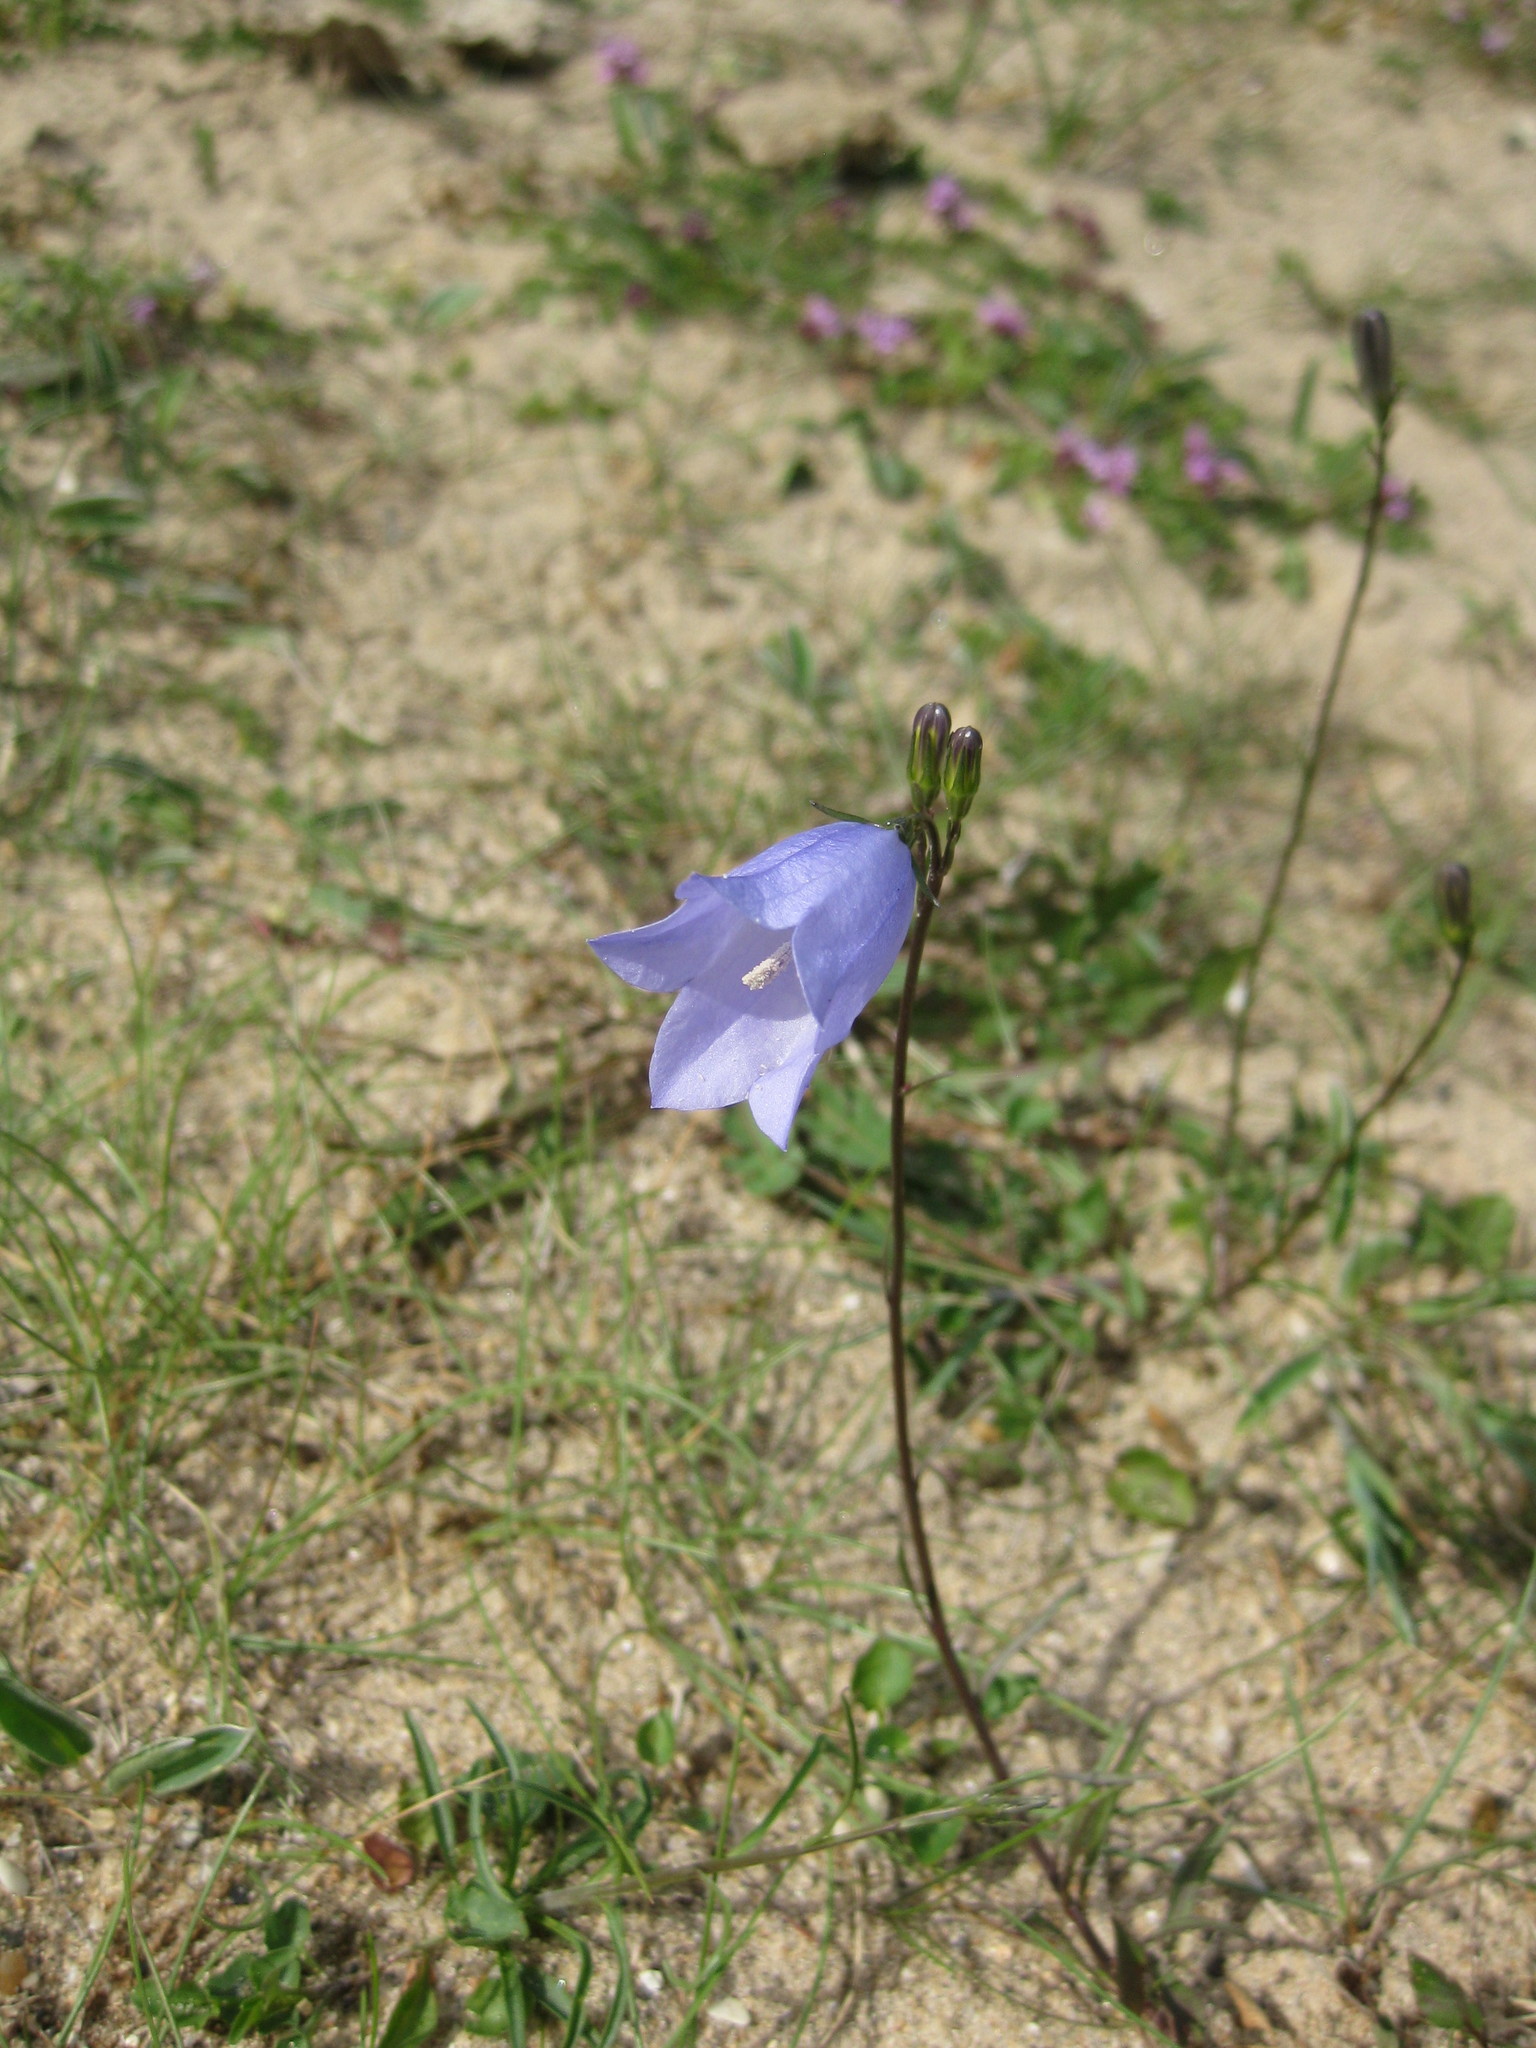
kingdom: Plantae
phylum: Tracheophyta
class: Magnoliopsida
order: Asterales
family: Campanulaceae
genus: Campanula
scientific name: Campanula rotundifolia
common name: Harebell
